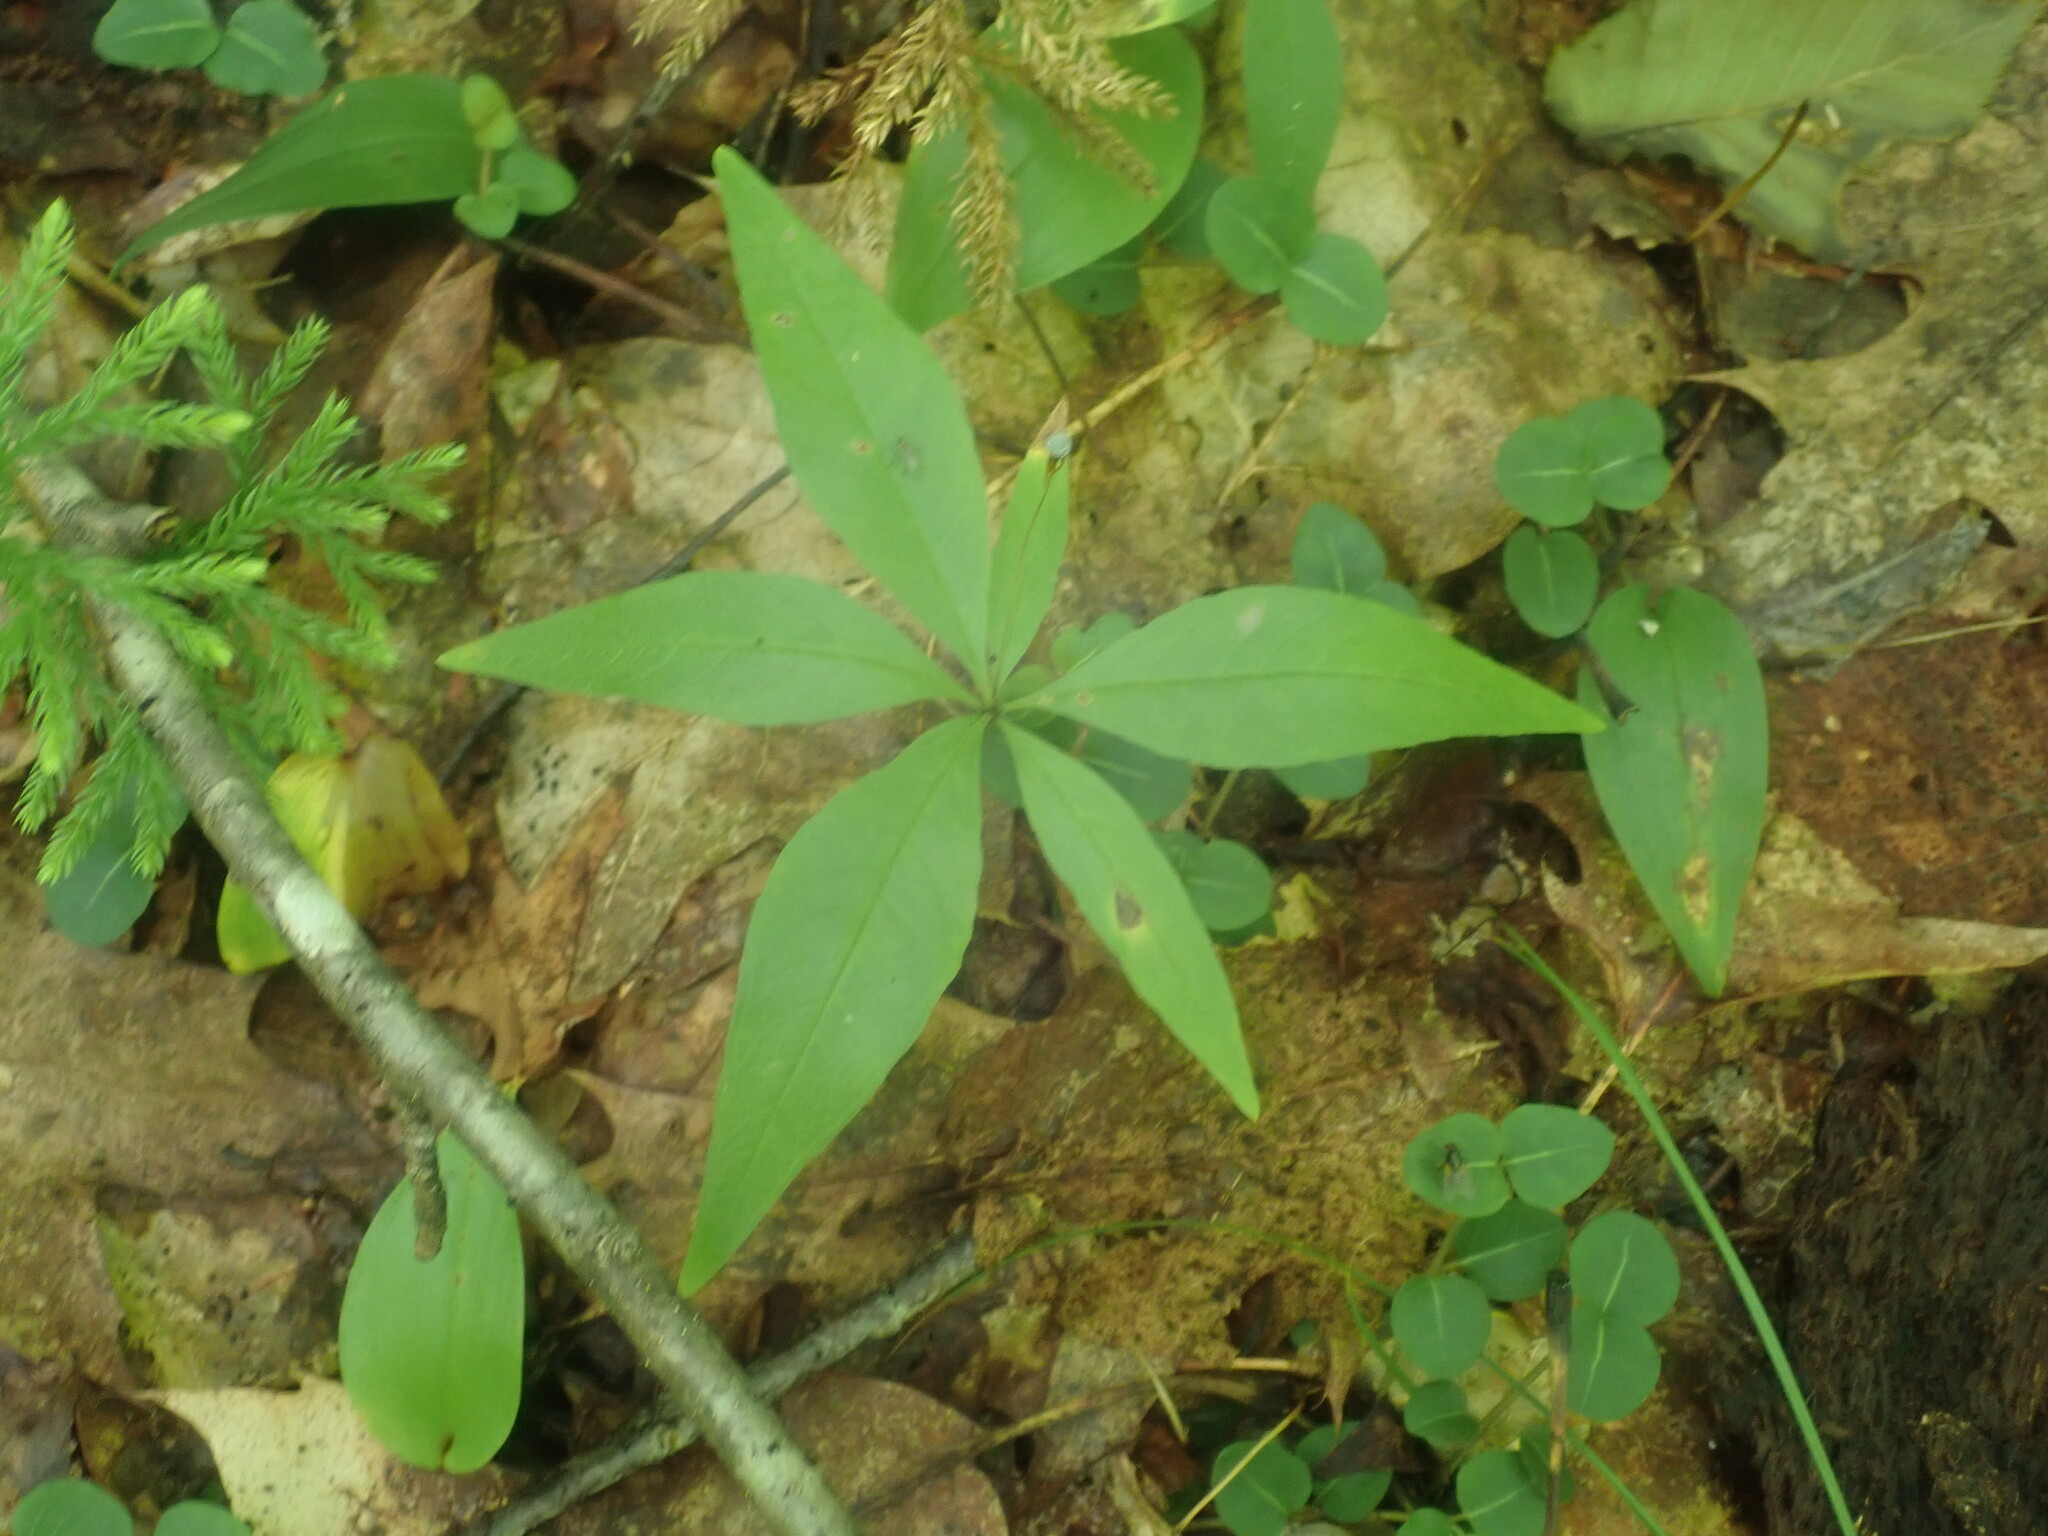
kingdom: Plantae
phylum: Tracheophyta
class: Magnoliopsida
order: Ericales
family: Primulaceae
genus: Lysimachia
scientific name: Lysimachia borealis
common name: American starflower
